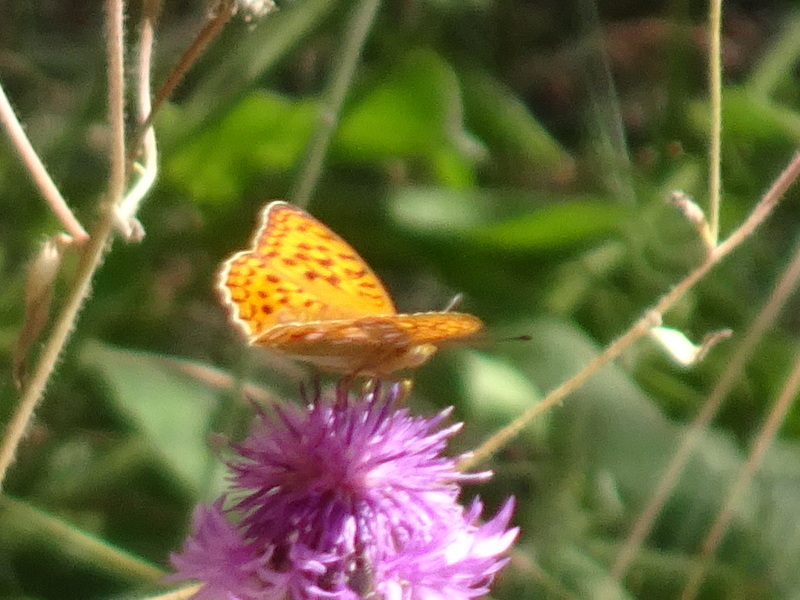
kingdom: Animalia
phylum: Arthropoda
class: Insecta
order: Lepidoptera
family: Nymphalidae
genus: Fabriciana
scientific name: Fabriciana adippe
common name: High brown fritillary
